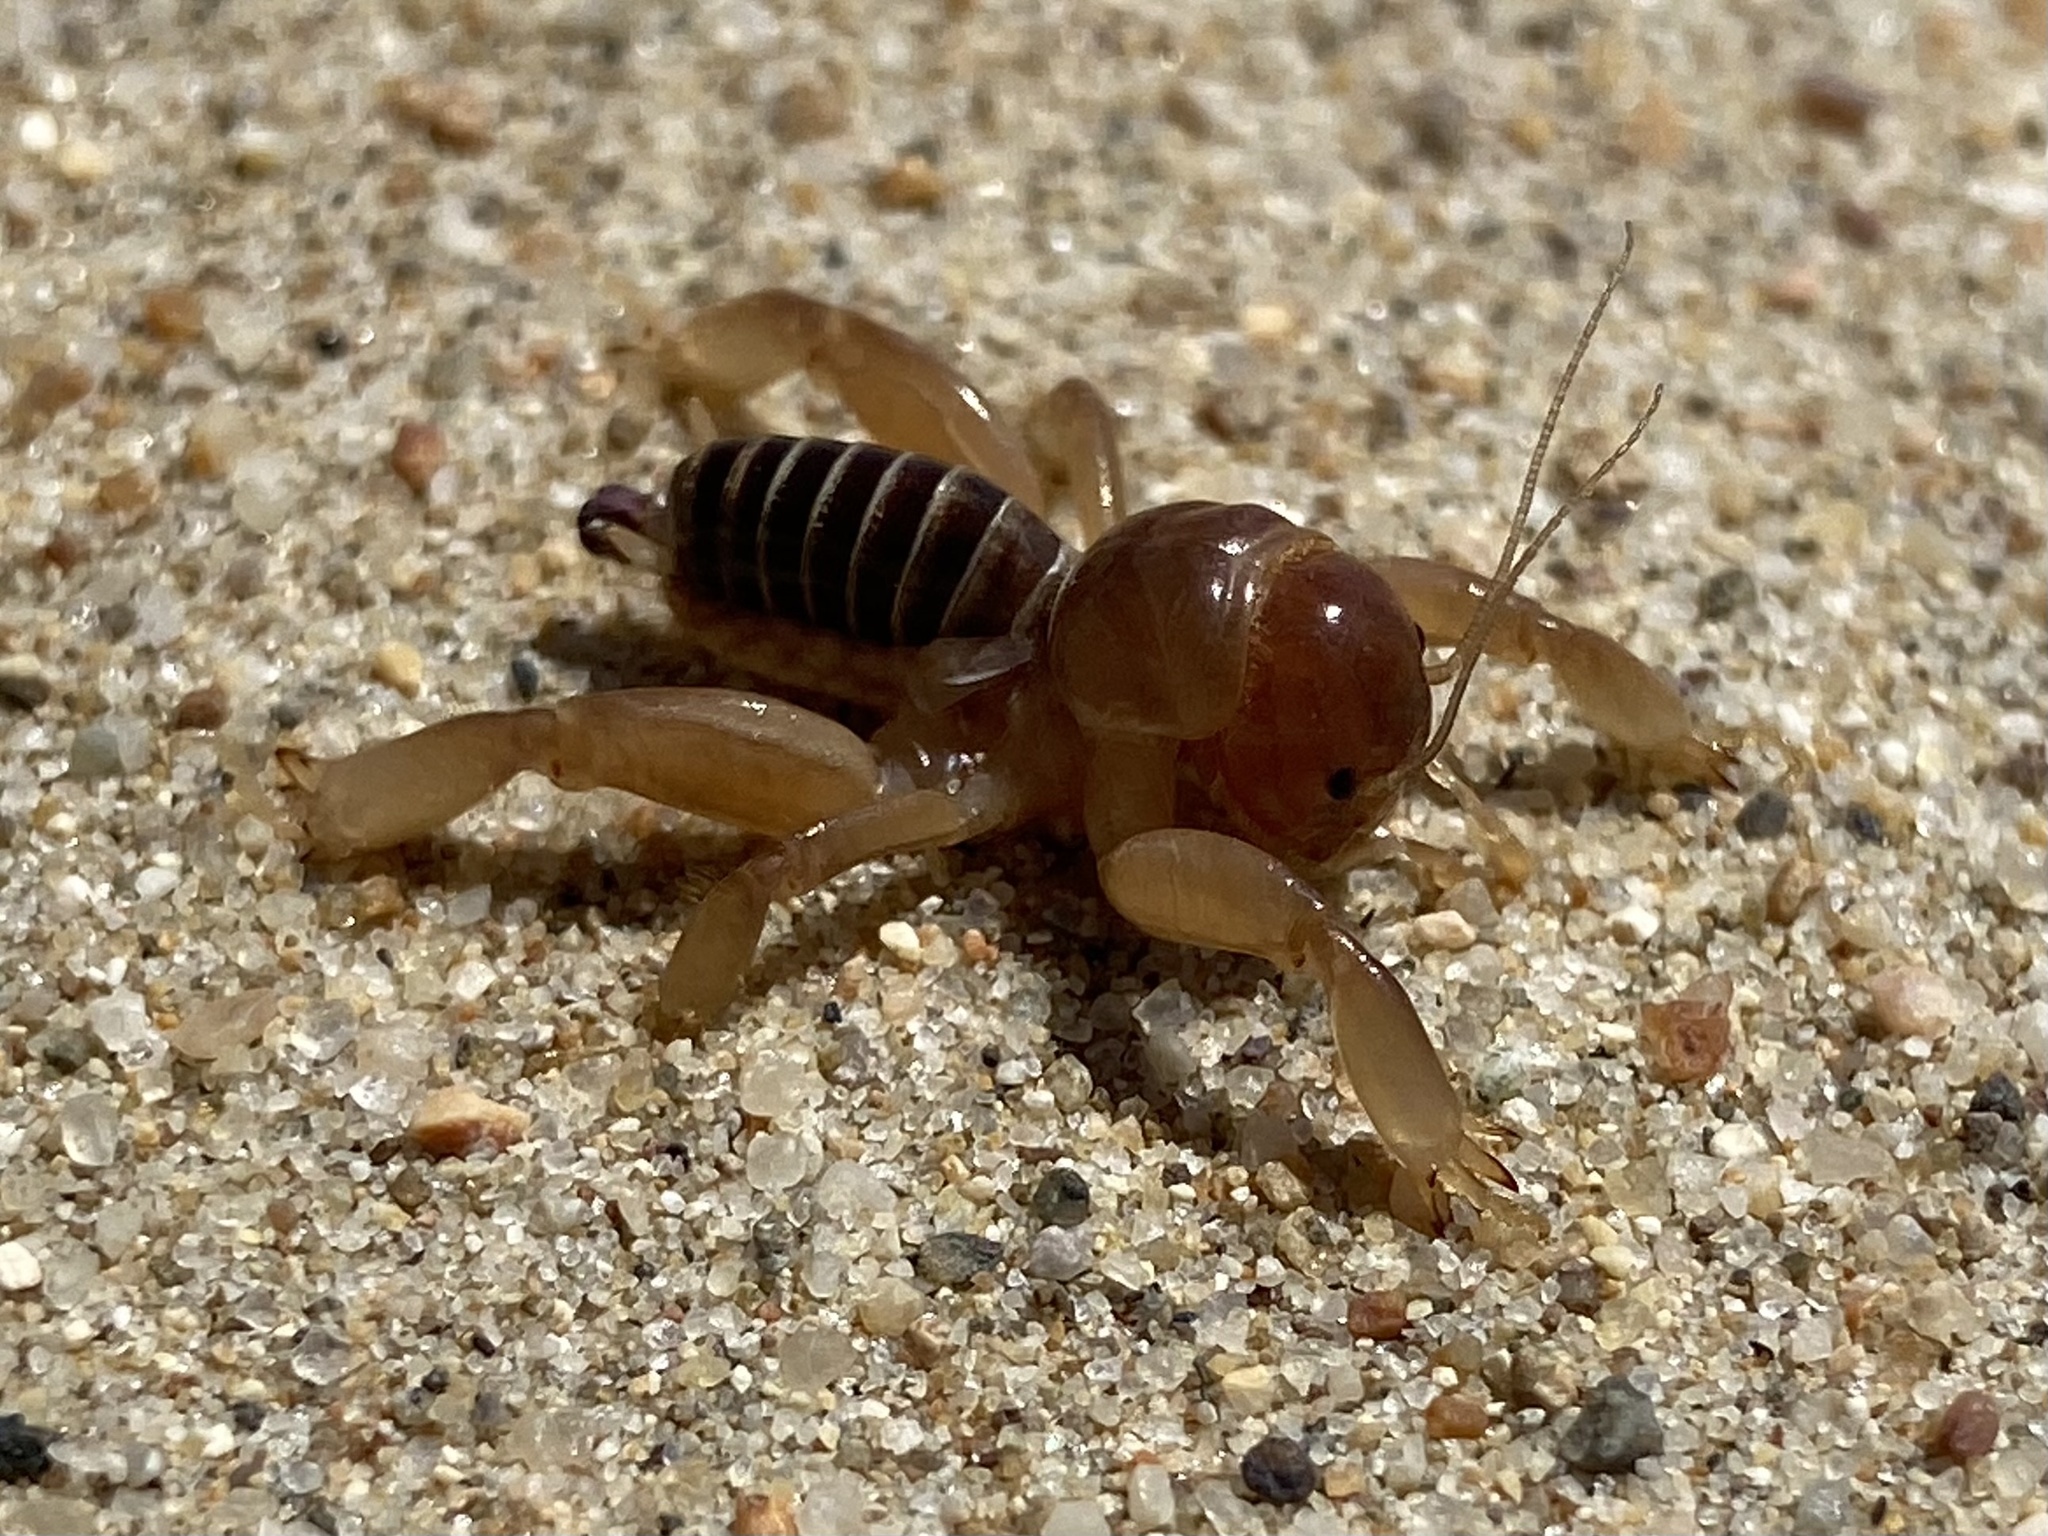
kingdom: Animalia
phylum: Arthropoda
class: Insecta
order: Orthoptera
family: Stenopelmatidae
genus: Ammopelmatus
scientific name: Ammopelmatus muwu
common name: Port conception jerusalem cricket
